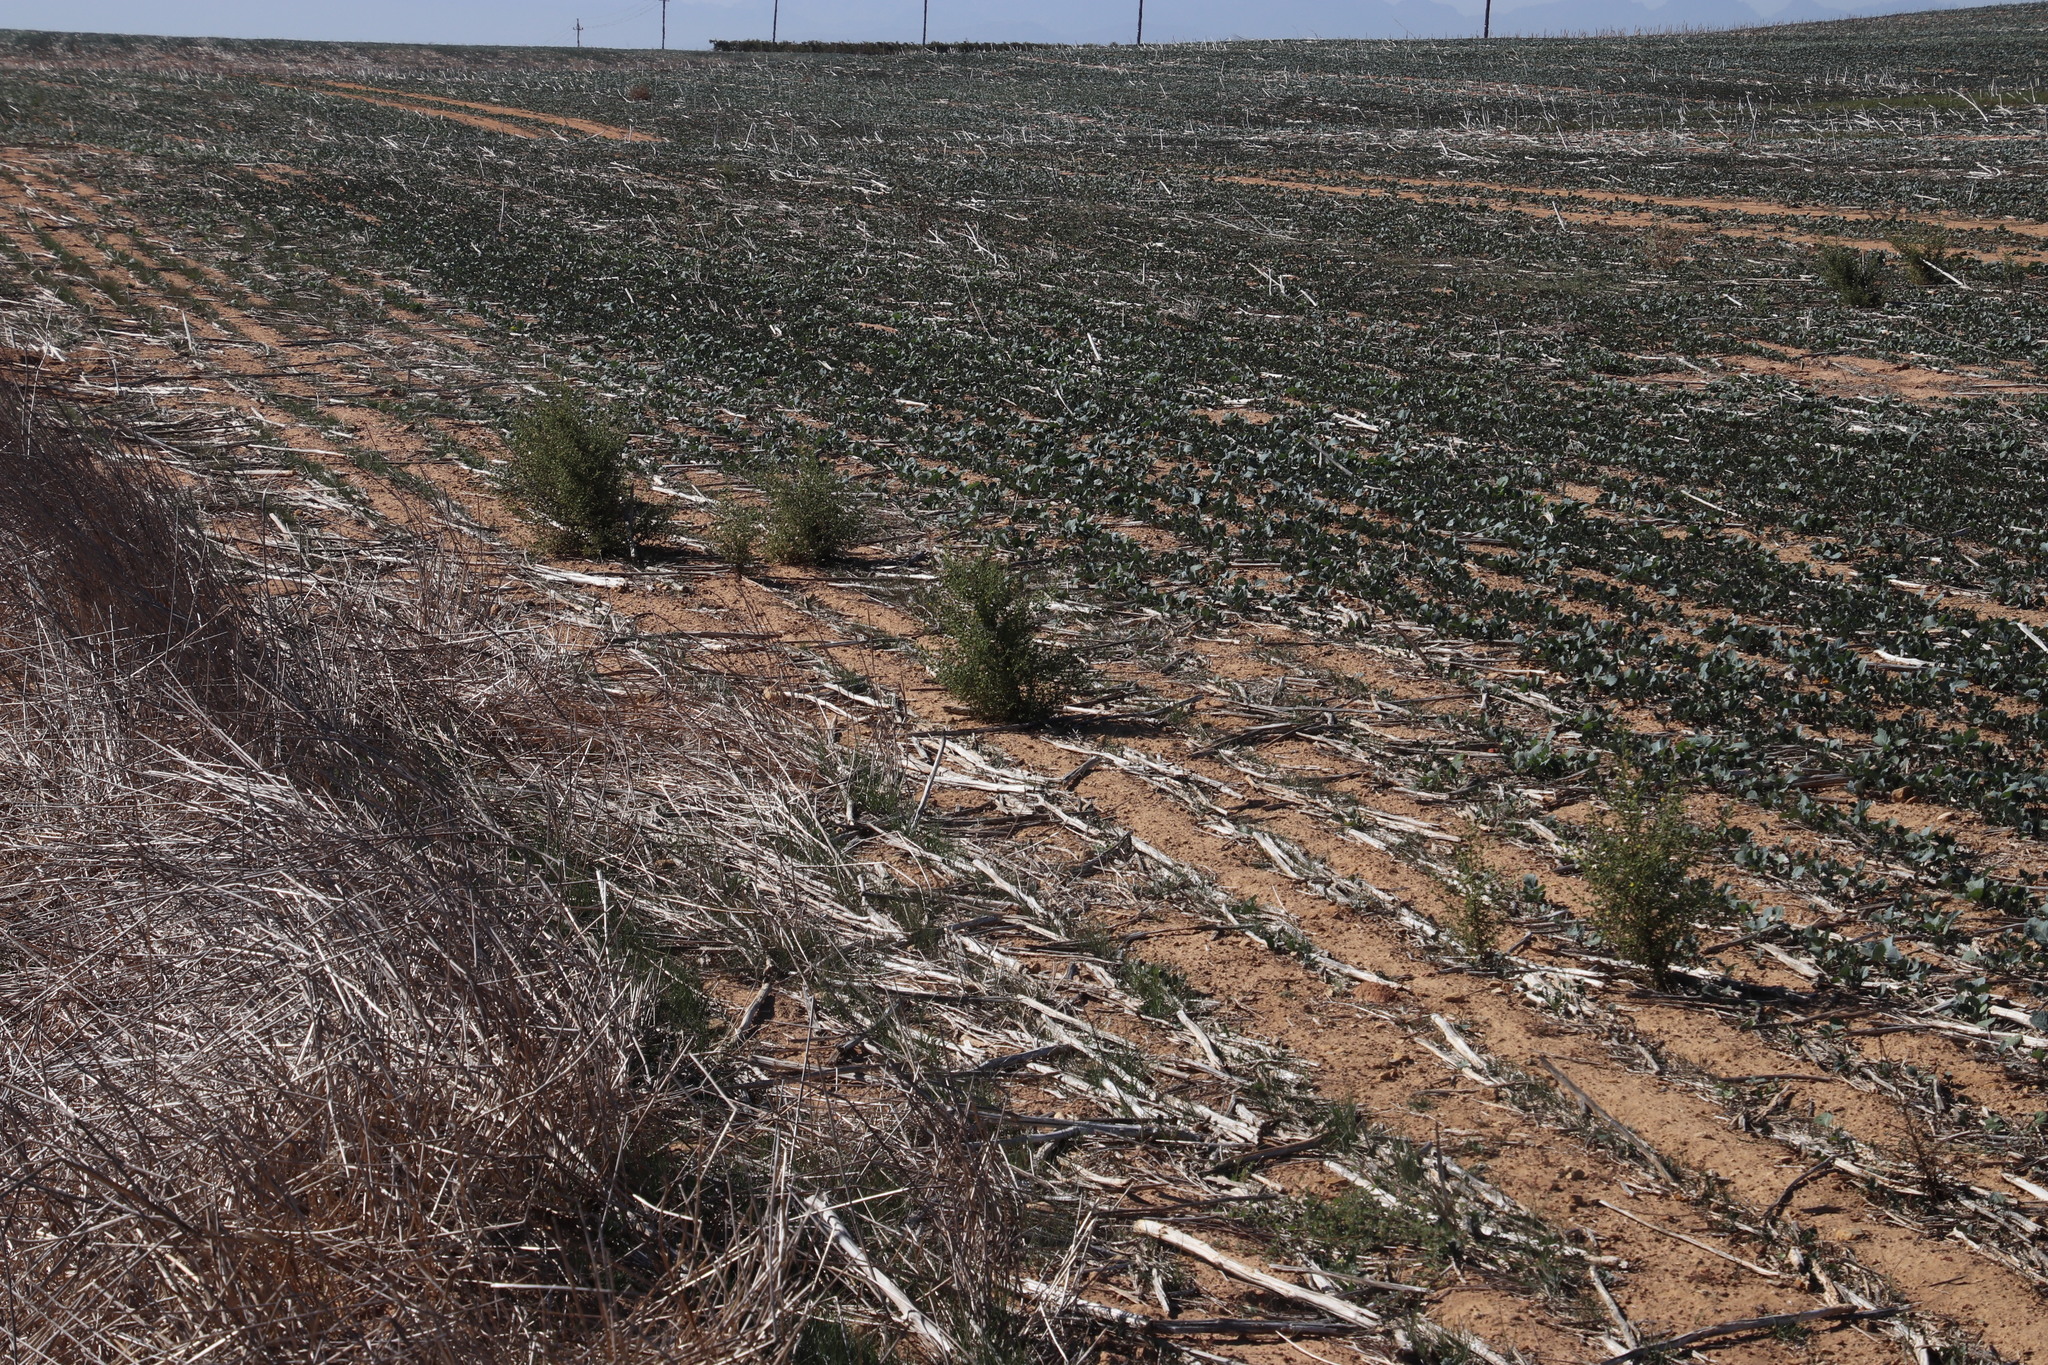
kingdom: Plantae
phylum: Tracheophyta
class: Magnoliopsida
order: Asterales
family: Asteraceae
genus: Dittrichia
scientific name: Dittrichia graveolens
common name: Stinking fleabane
